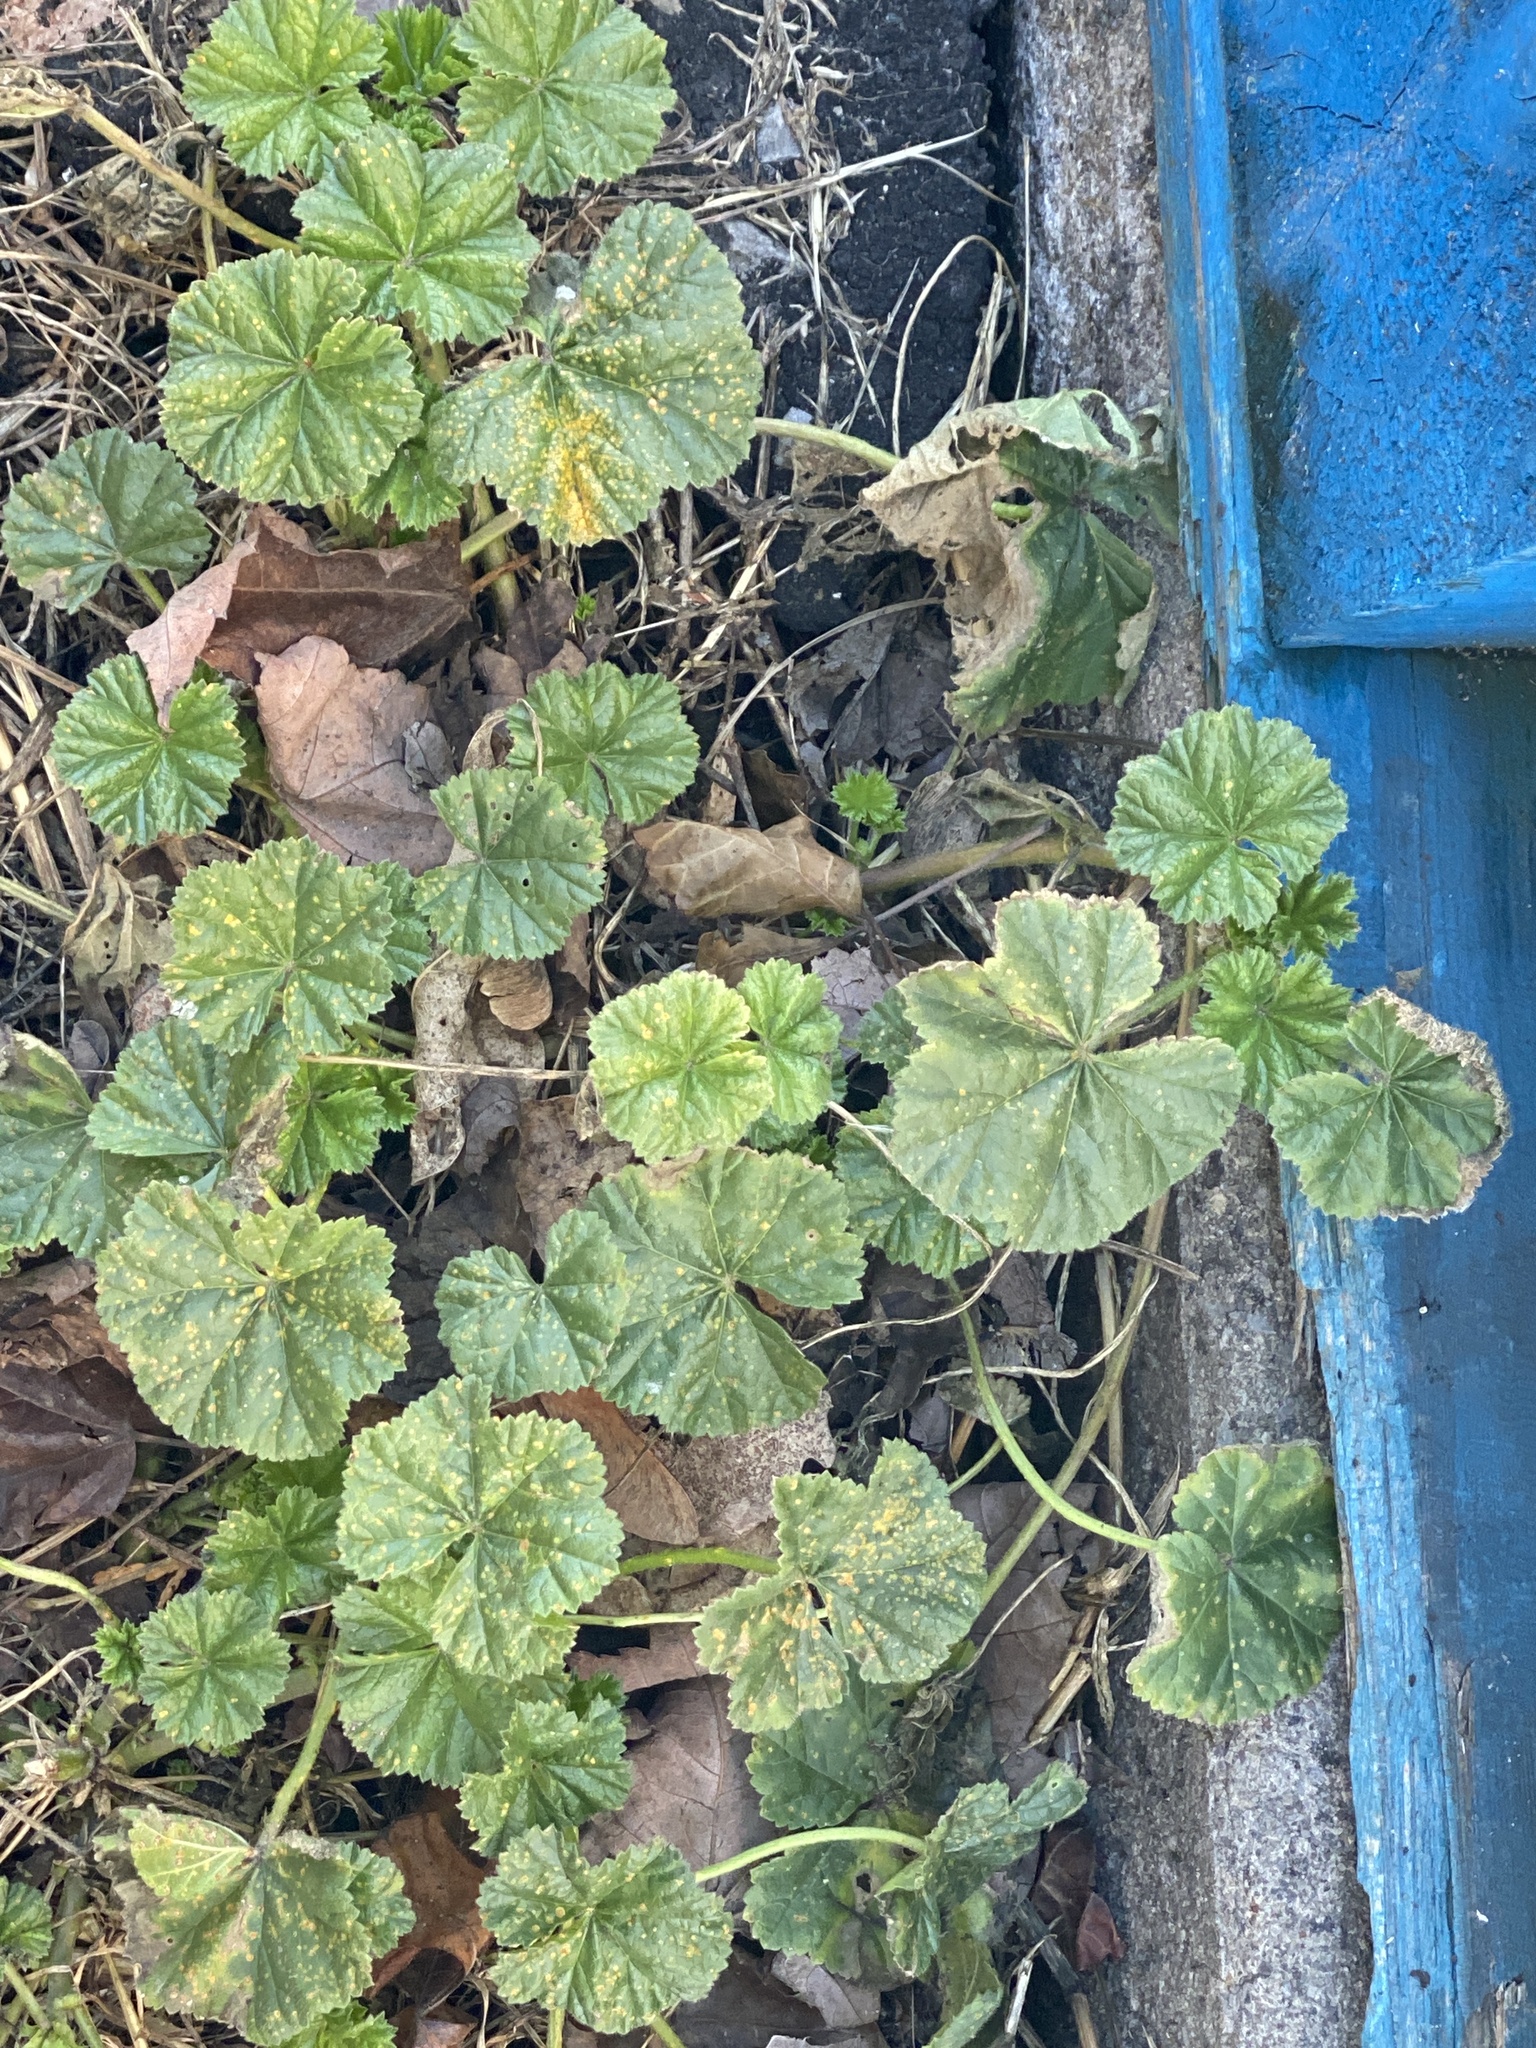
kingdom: Plantae
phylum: Tracheophyta
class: Magnoliopsida
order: Malvales
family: Malvaceae
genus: Malva
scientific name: Malva neglecta
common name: Common mallow
